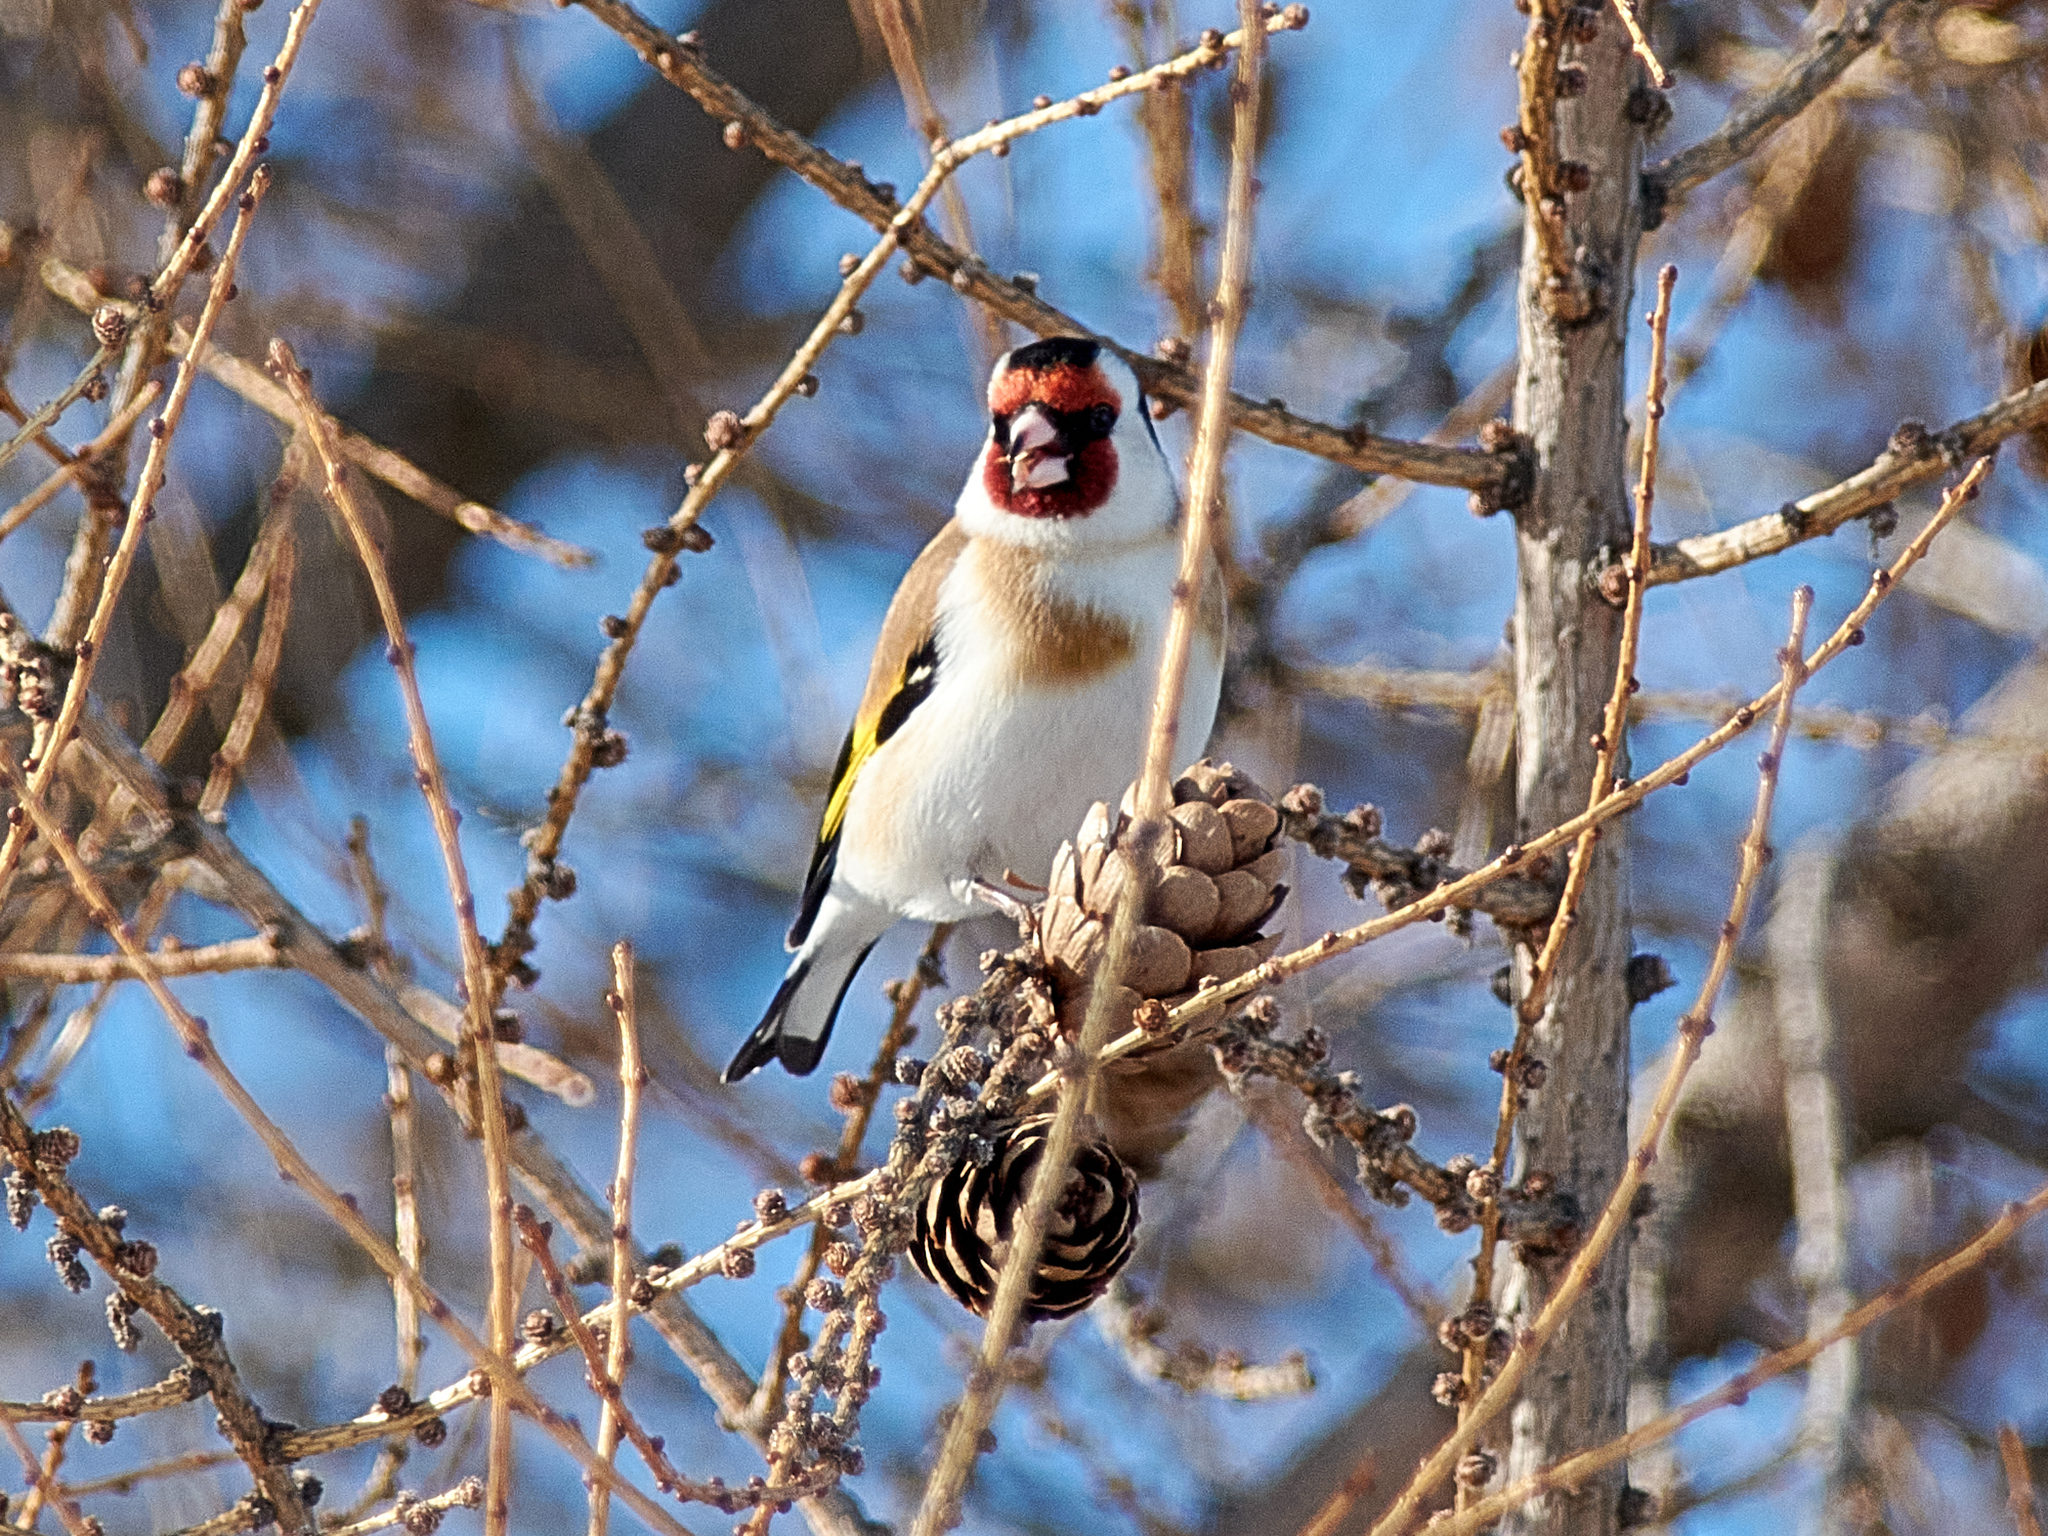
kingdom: Animalia
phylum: Chordata
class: Aves
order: Passeriformes
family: Fringillidae
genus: Carduelis
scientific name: Carduelis carduelis
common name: European goldfinch
